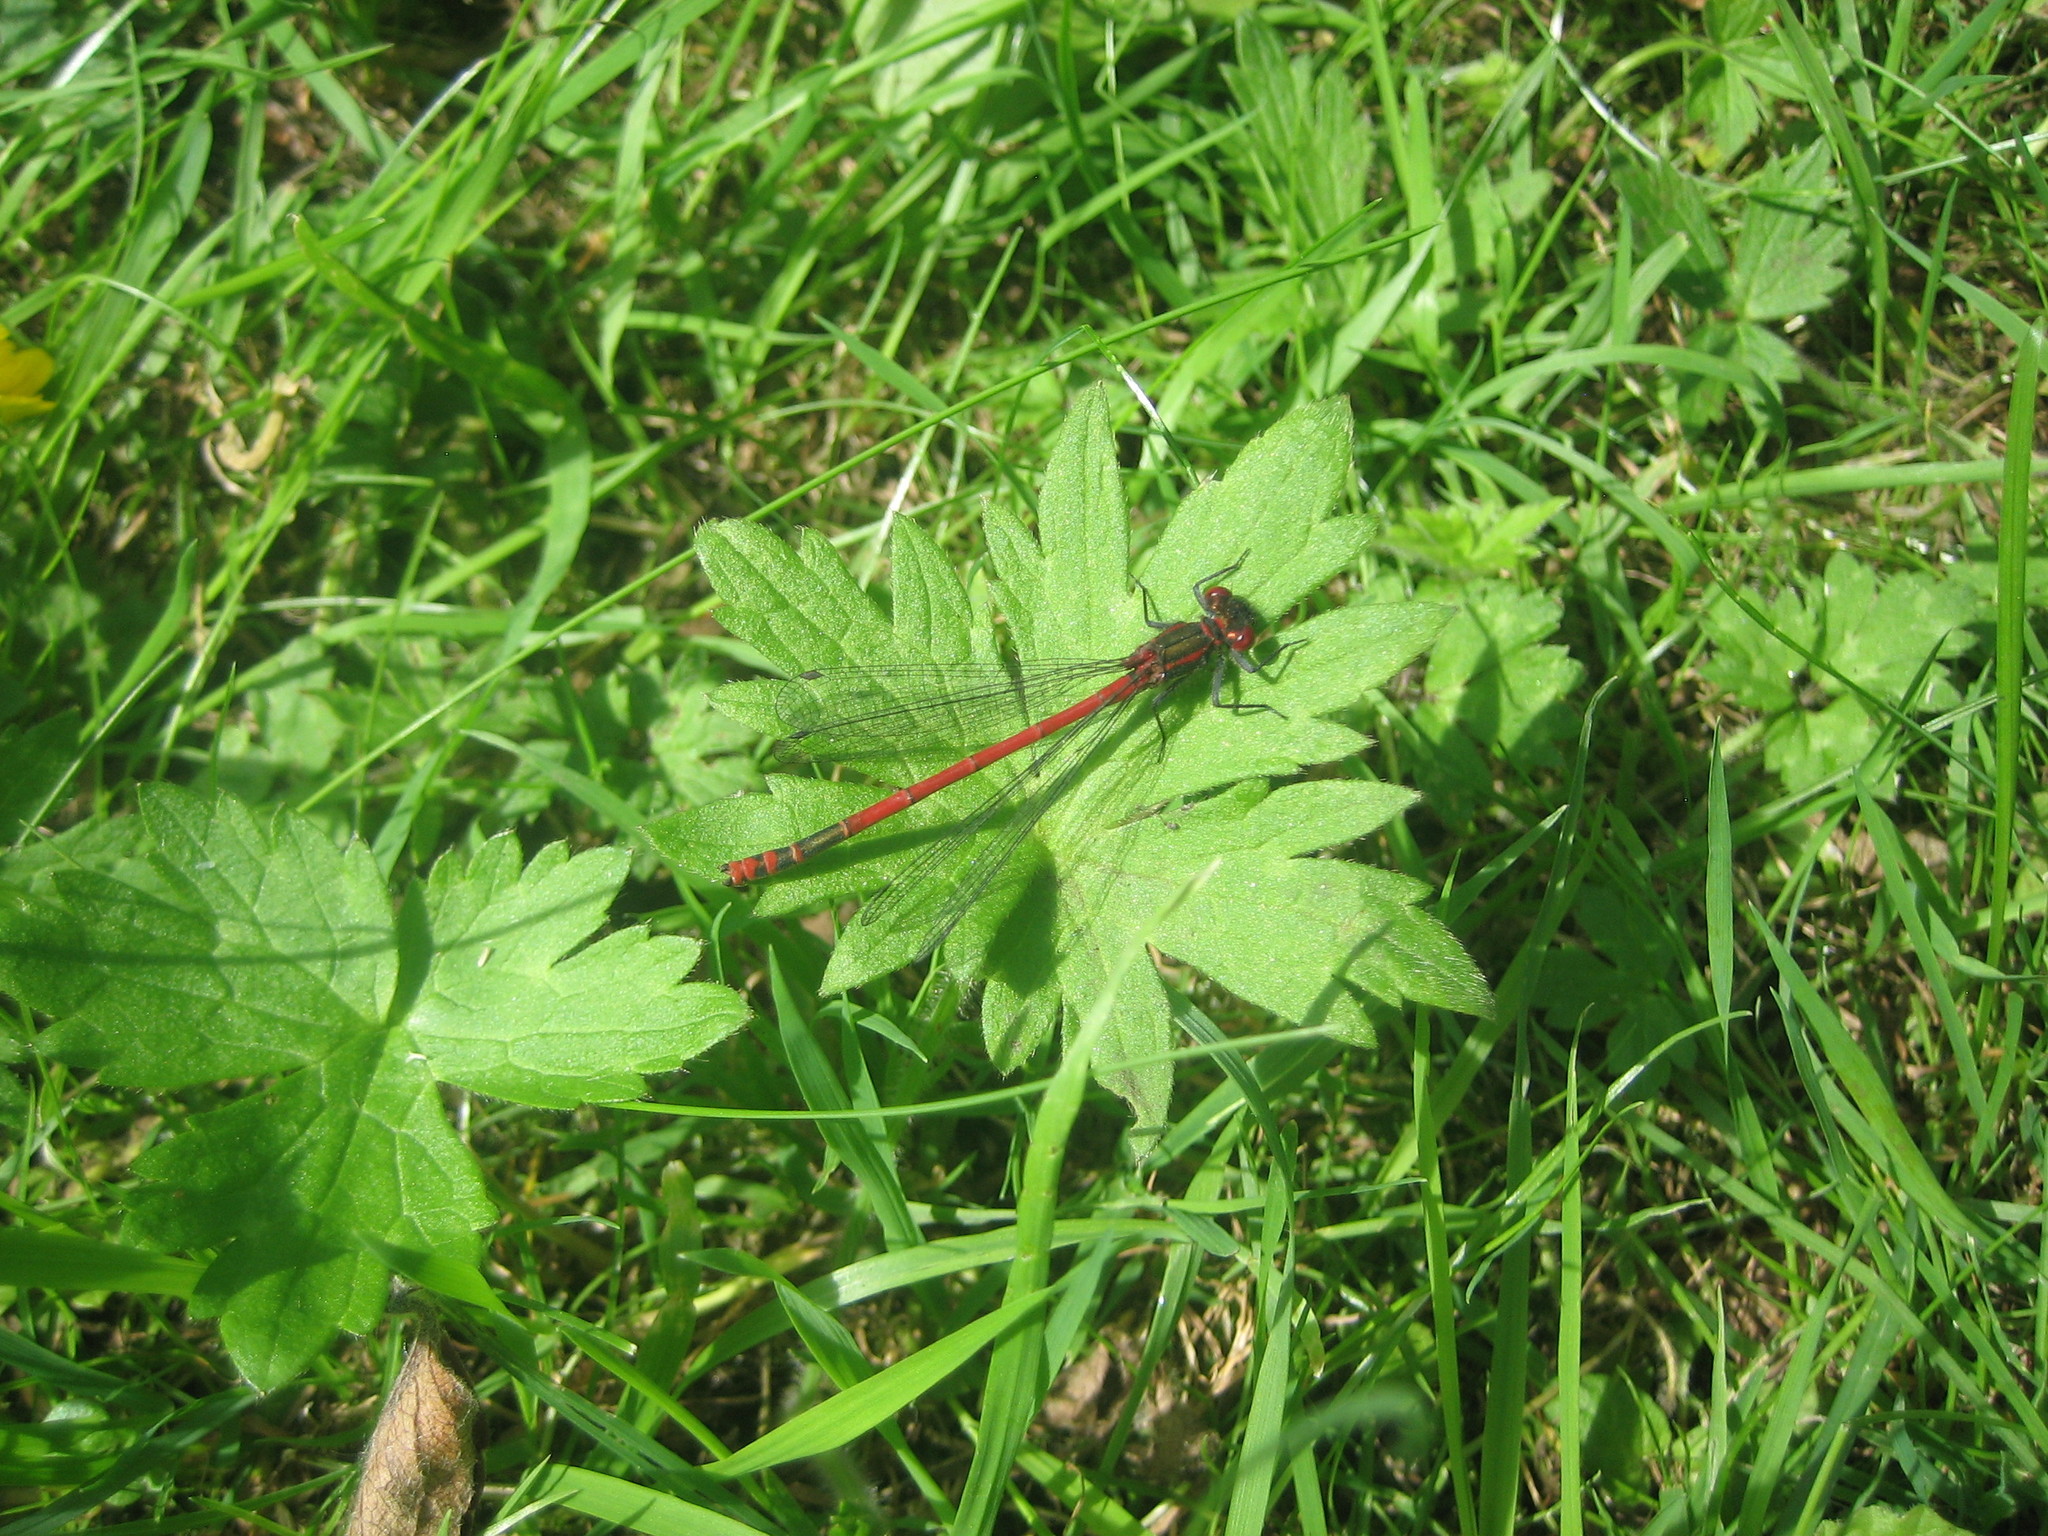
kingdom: Animalia
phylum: Arthropoda
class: Insecta
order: Odonata
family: Coenagrionidae
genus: Pyrrhosoma
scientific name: Pyrrhosoma nymphula
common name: Large red damsel
